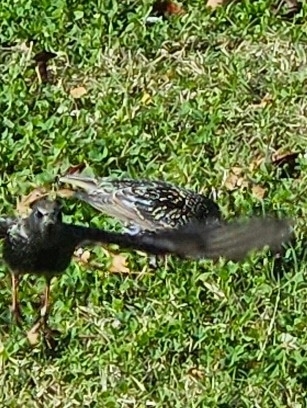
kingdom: Animalia
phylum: Chordata
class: Aves
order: Passeriformes
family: Sturnidae
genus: Sturnus
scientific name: Sturnus vulgaris
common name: Common starling
